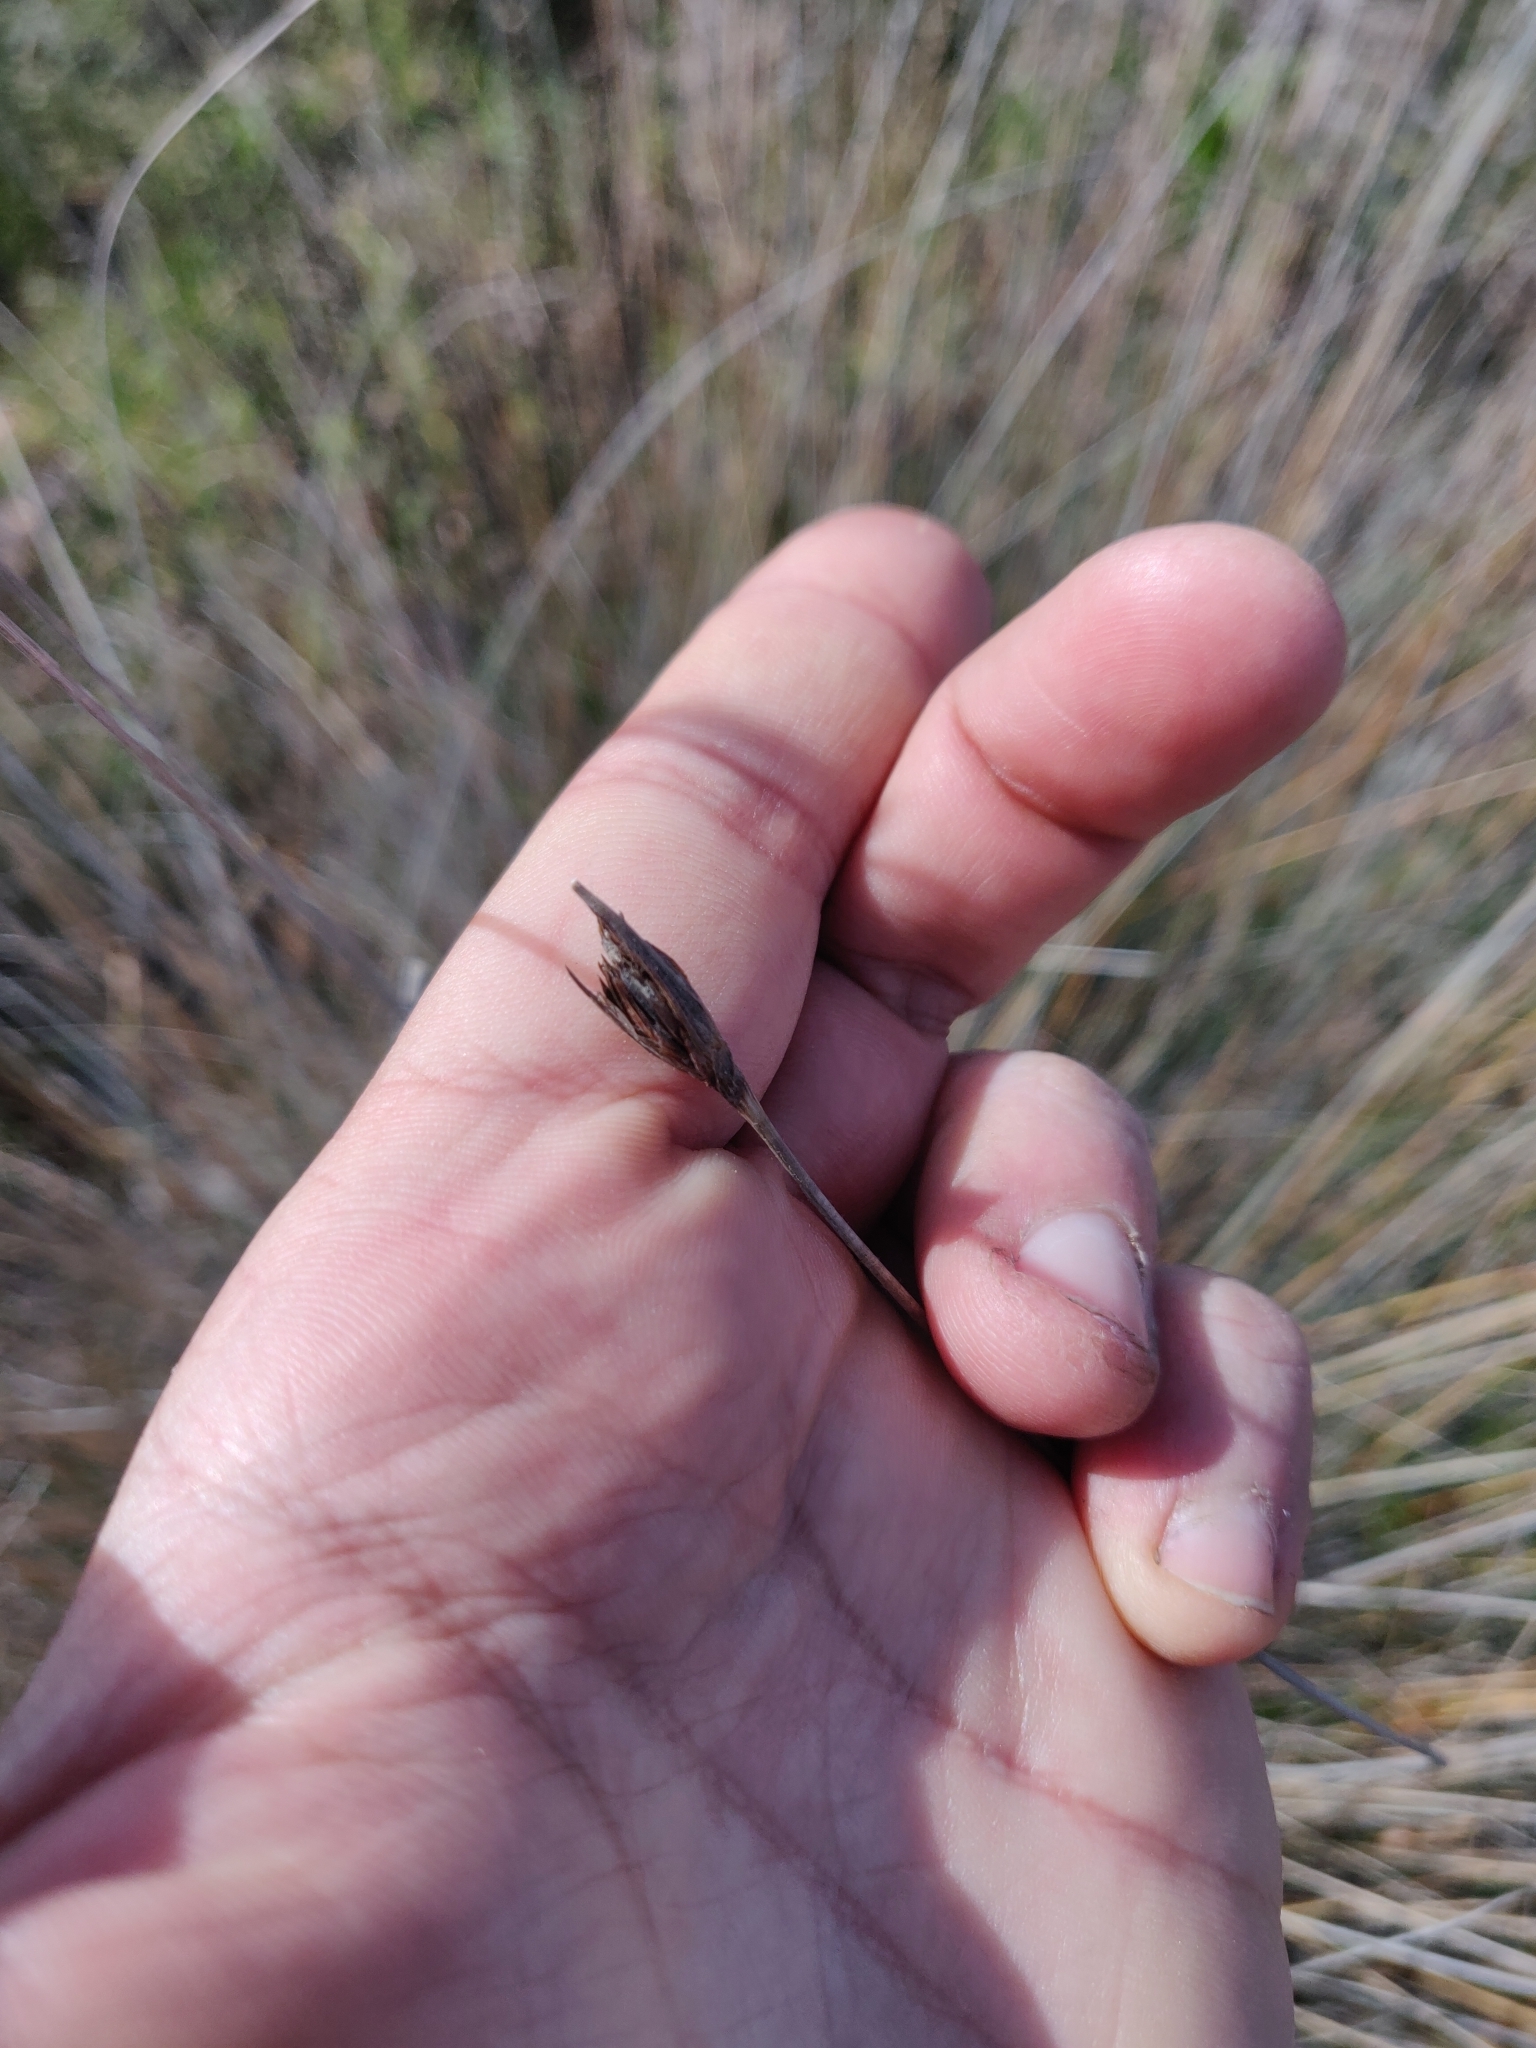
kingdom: Plantae
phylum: Tracheophyta
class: Liliopsida
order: Poales
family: Cyperaceae
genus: Schoenus
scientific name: Schoenus nigricans
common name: Black bog-rush
